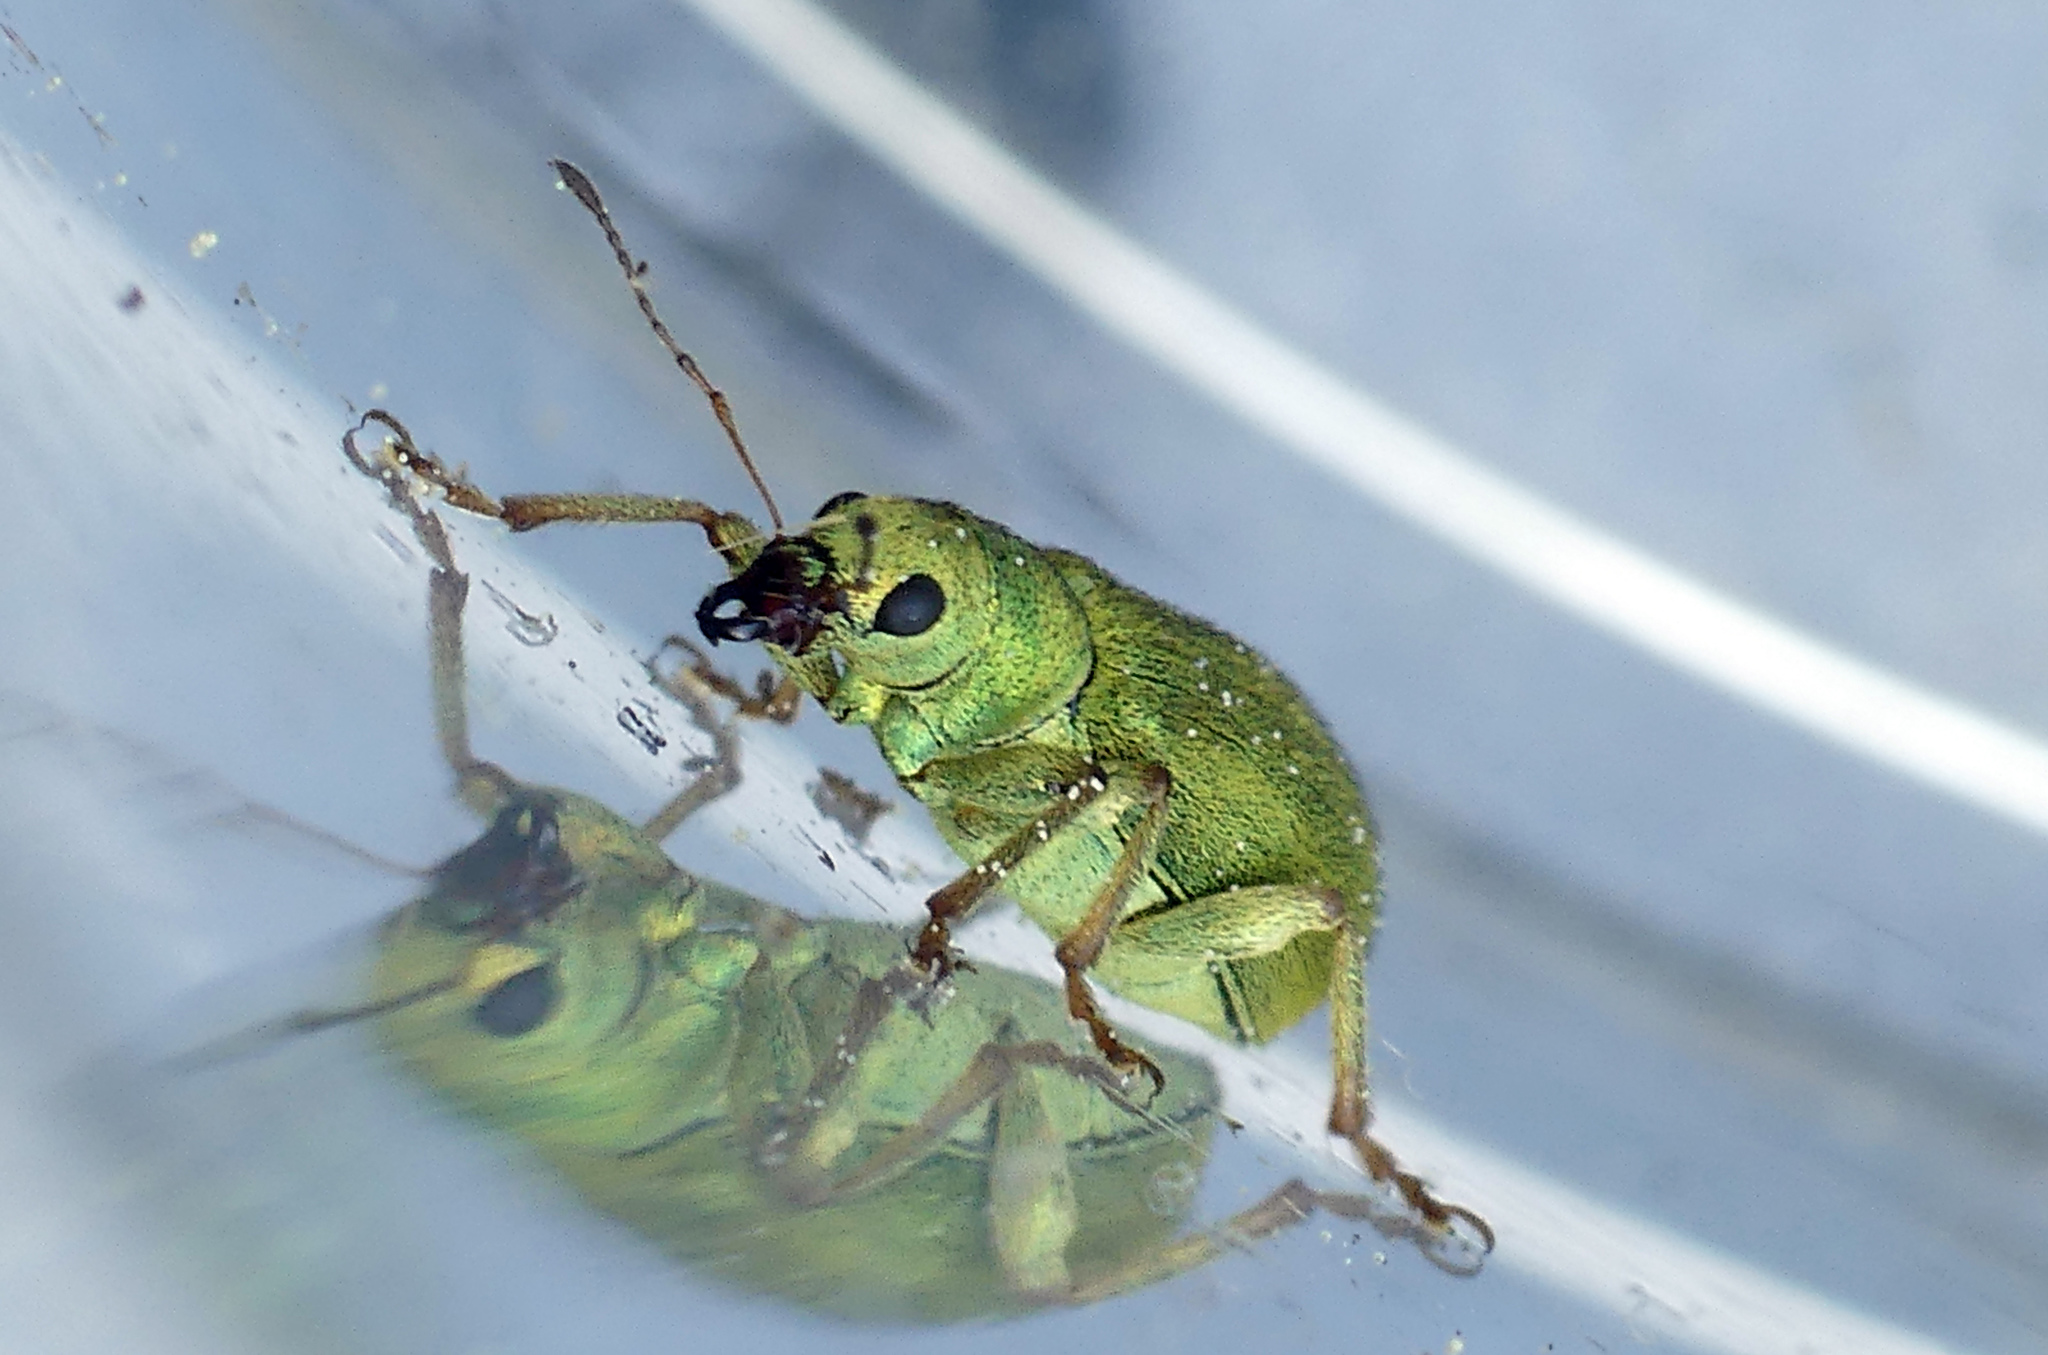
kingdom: Animalia
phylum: Arthropoda
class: Insecta
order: Coleoptera
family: Curculionidae
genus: Pachyrhinus
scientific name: Pachyrhinus lethierryi
